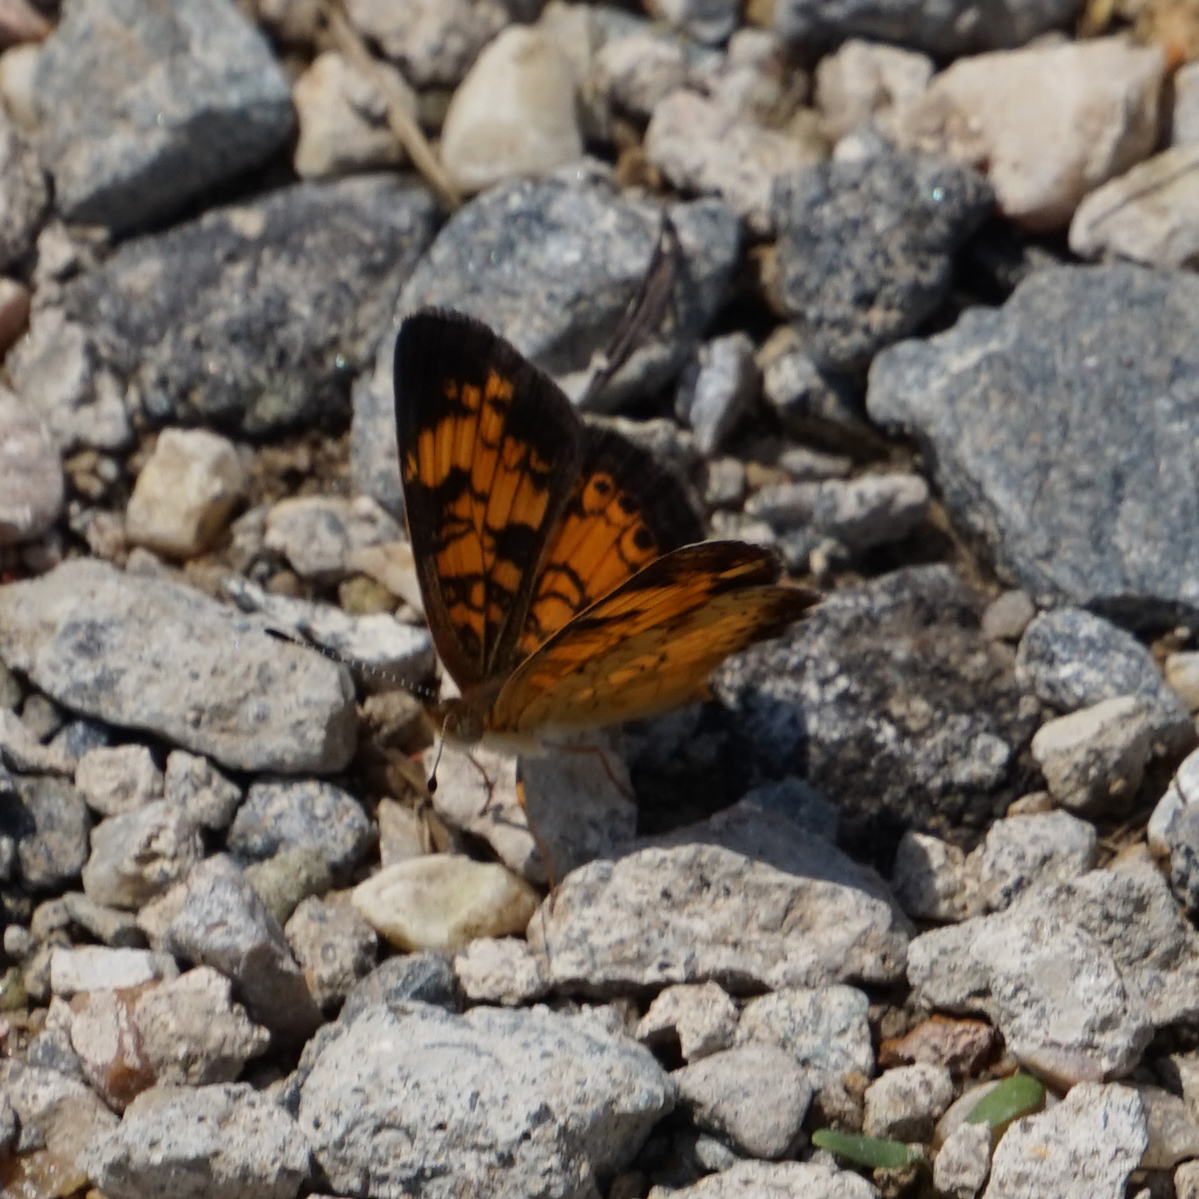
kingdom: Animalia
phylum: Arthropoda
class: Insecta
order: Lepidoptera
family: Nymphalidae
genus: Phyciodes
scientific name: Phyciodes tharos
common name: Pearl crescent
